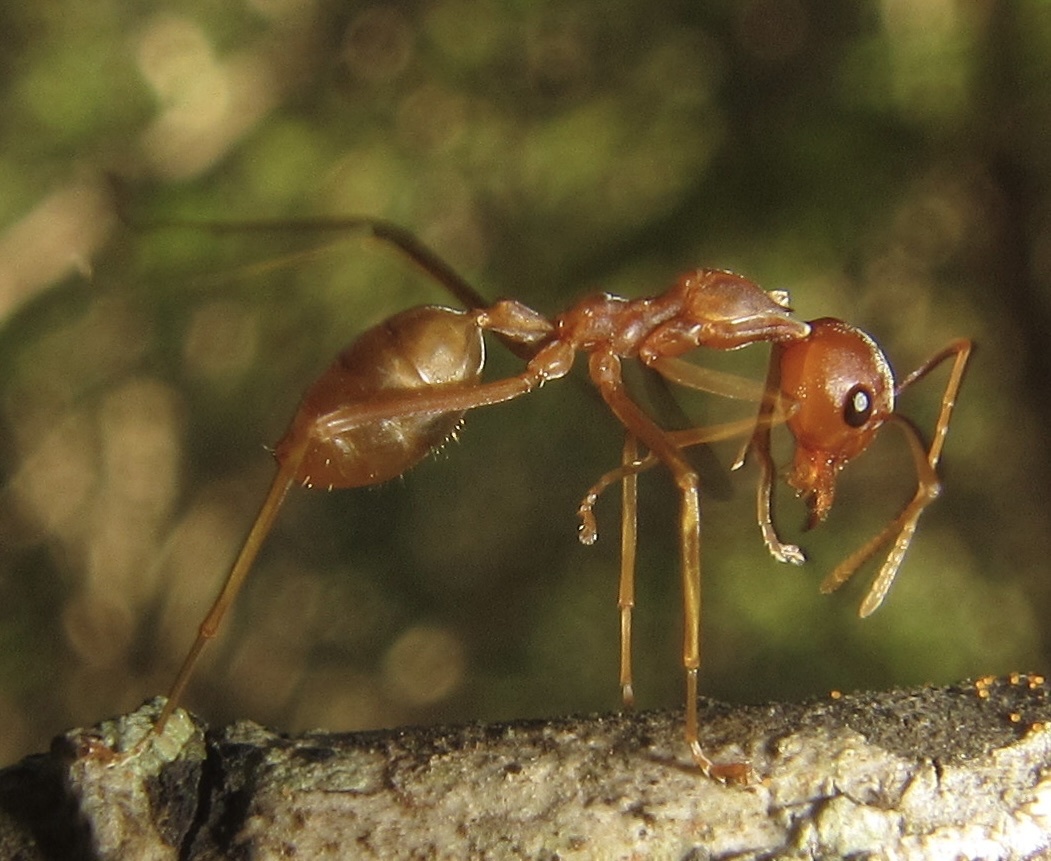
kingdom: Animalia
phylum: Arthropoda
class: Insecta
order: Hymenoptera
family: Formicidae
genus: Oecophylla
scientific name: Oecophylla longinoda
